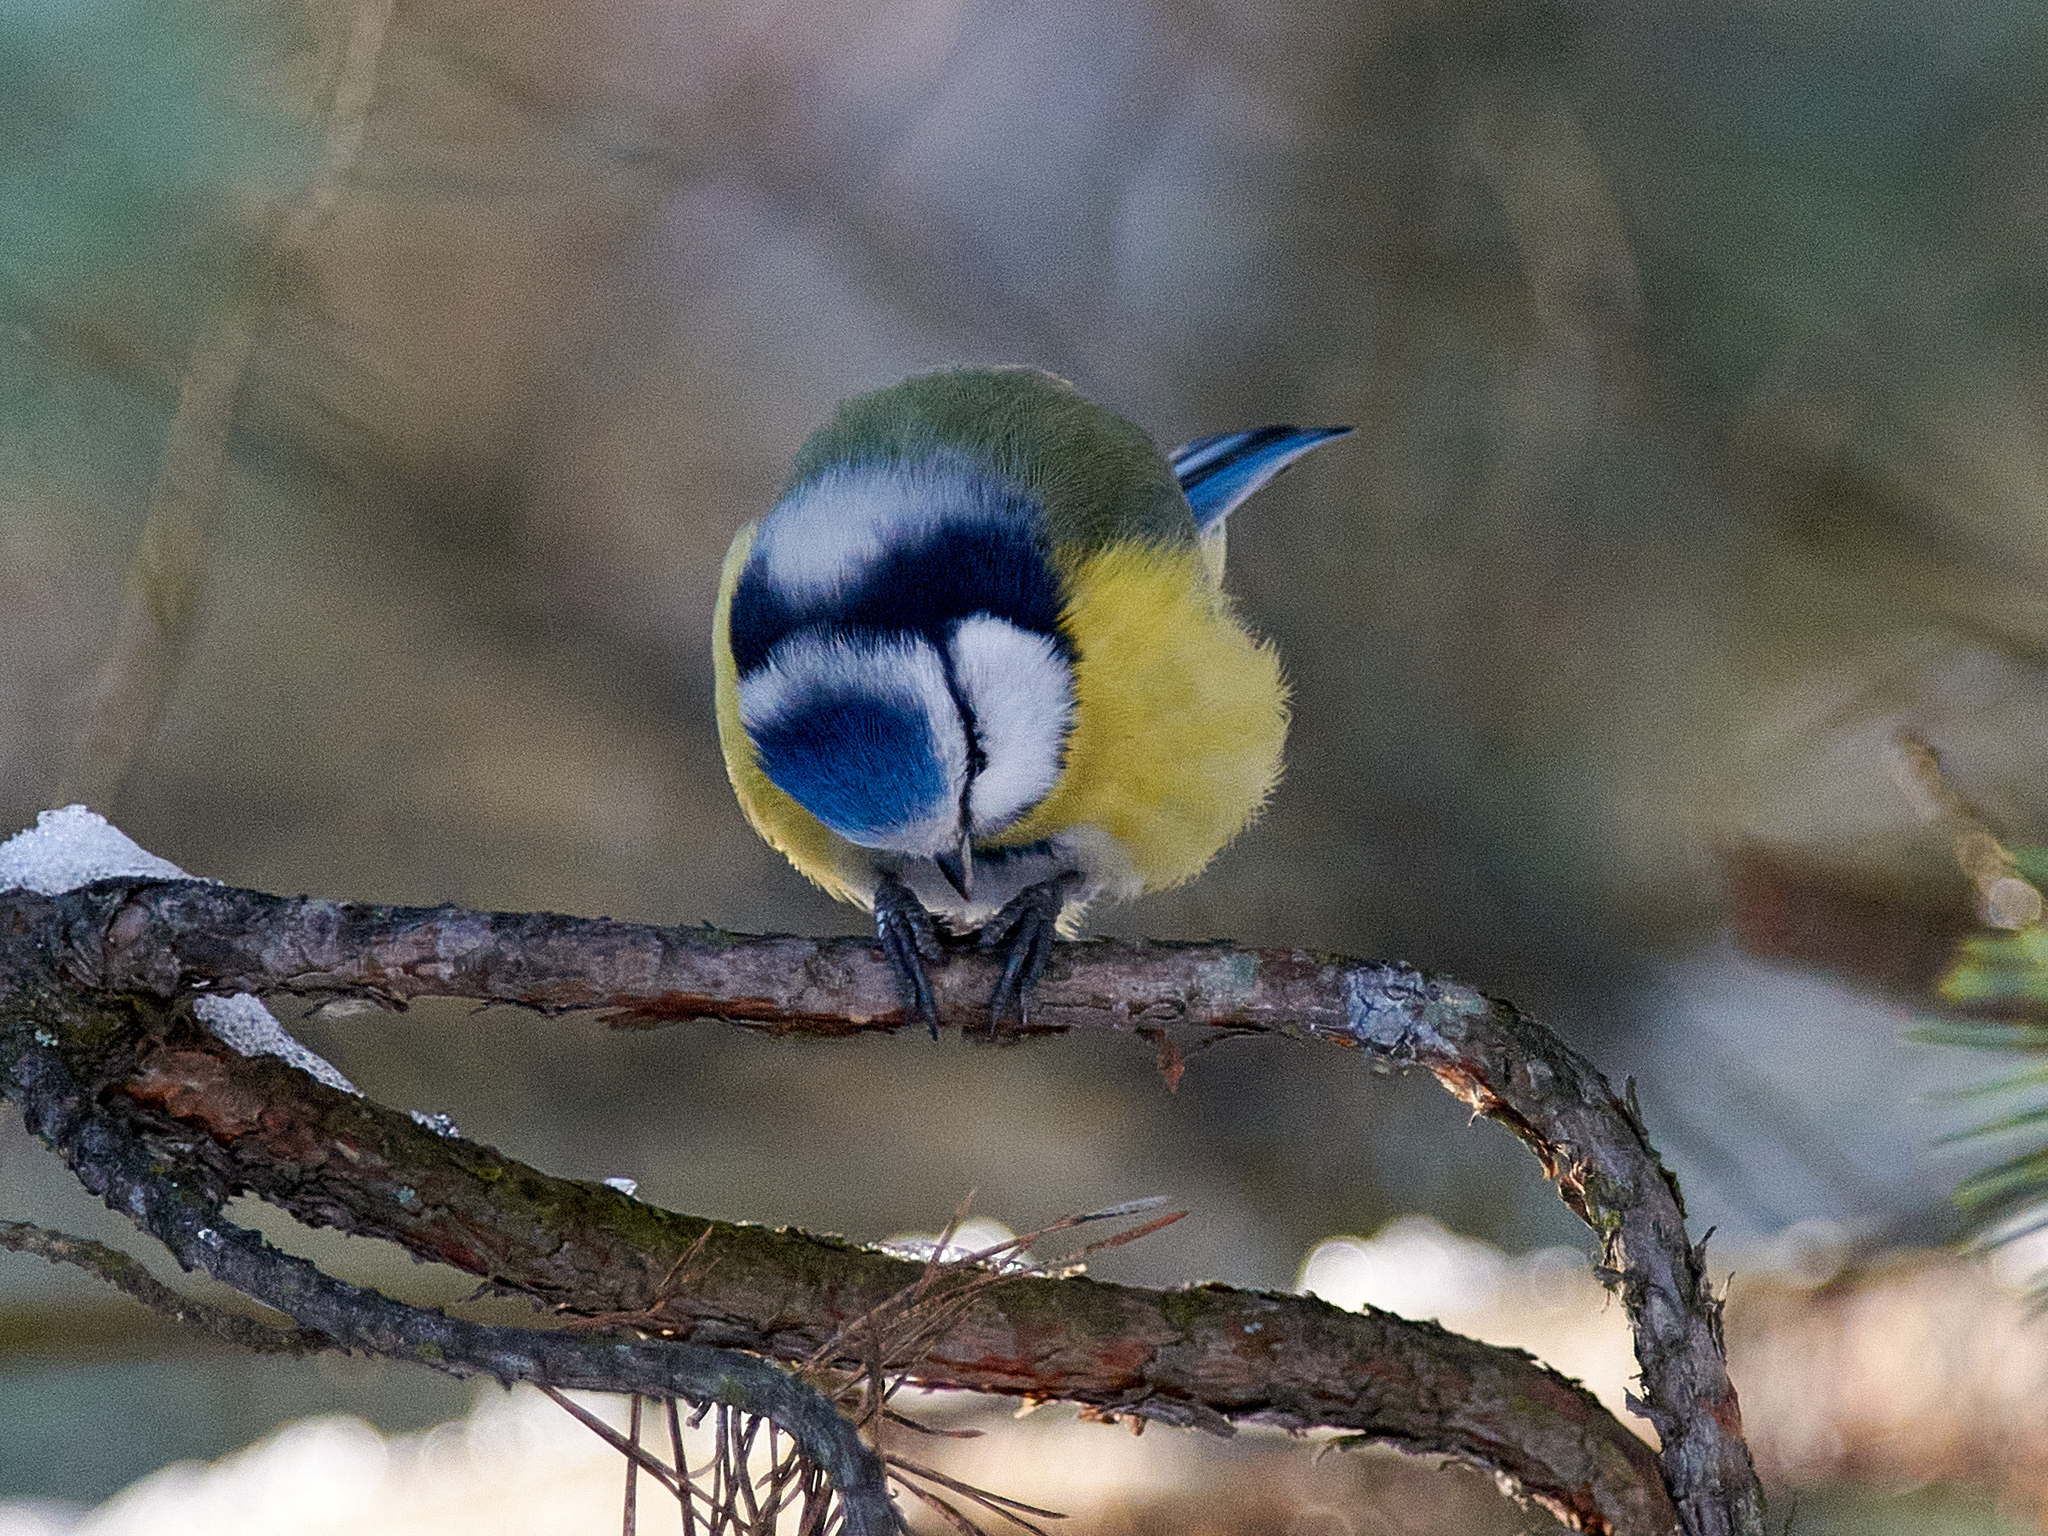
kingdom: Animalia
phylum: Chordata
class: Aves
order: Passeriformes
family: Paridae
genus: Cyanistes
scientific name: Cyanistes caeruleus
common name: Eurasian blue tit
